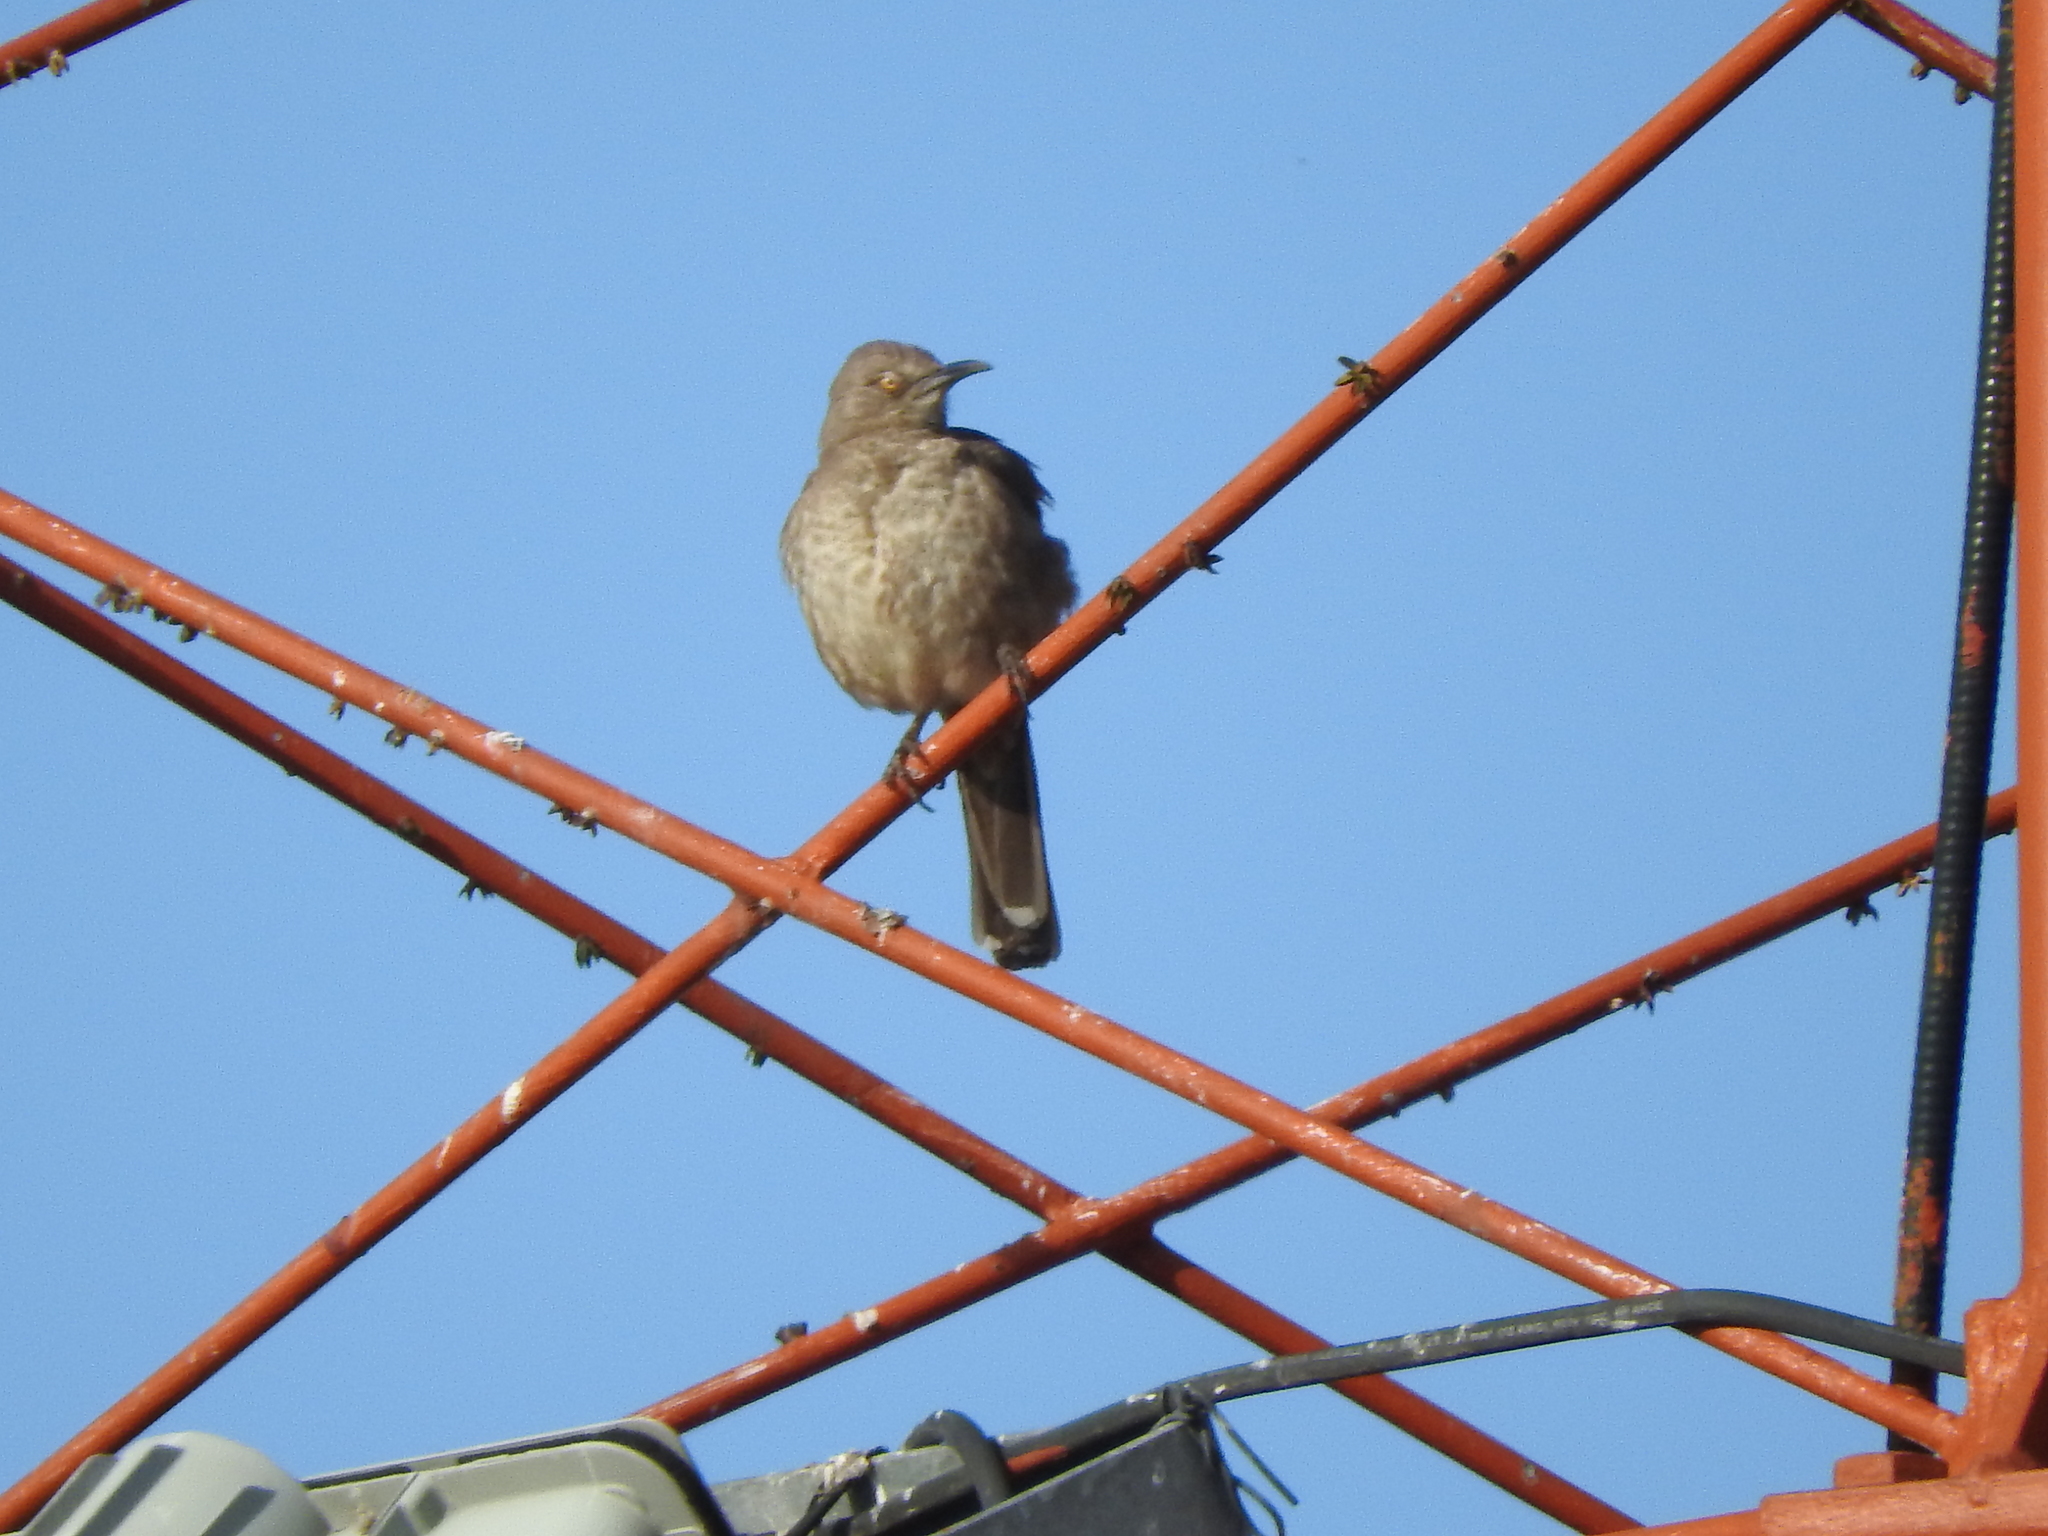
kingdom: Animalia
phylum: Chordata
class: Aves
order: Passeriformes
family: Mimidae
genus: Toxostoma
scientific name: Toxostoma curvirostre
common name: Curve-billed thrasher
